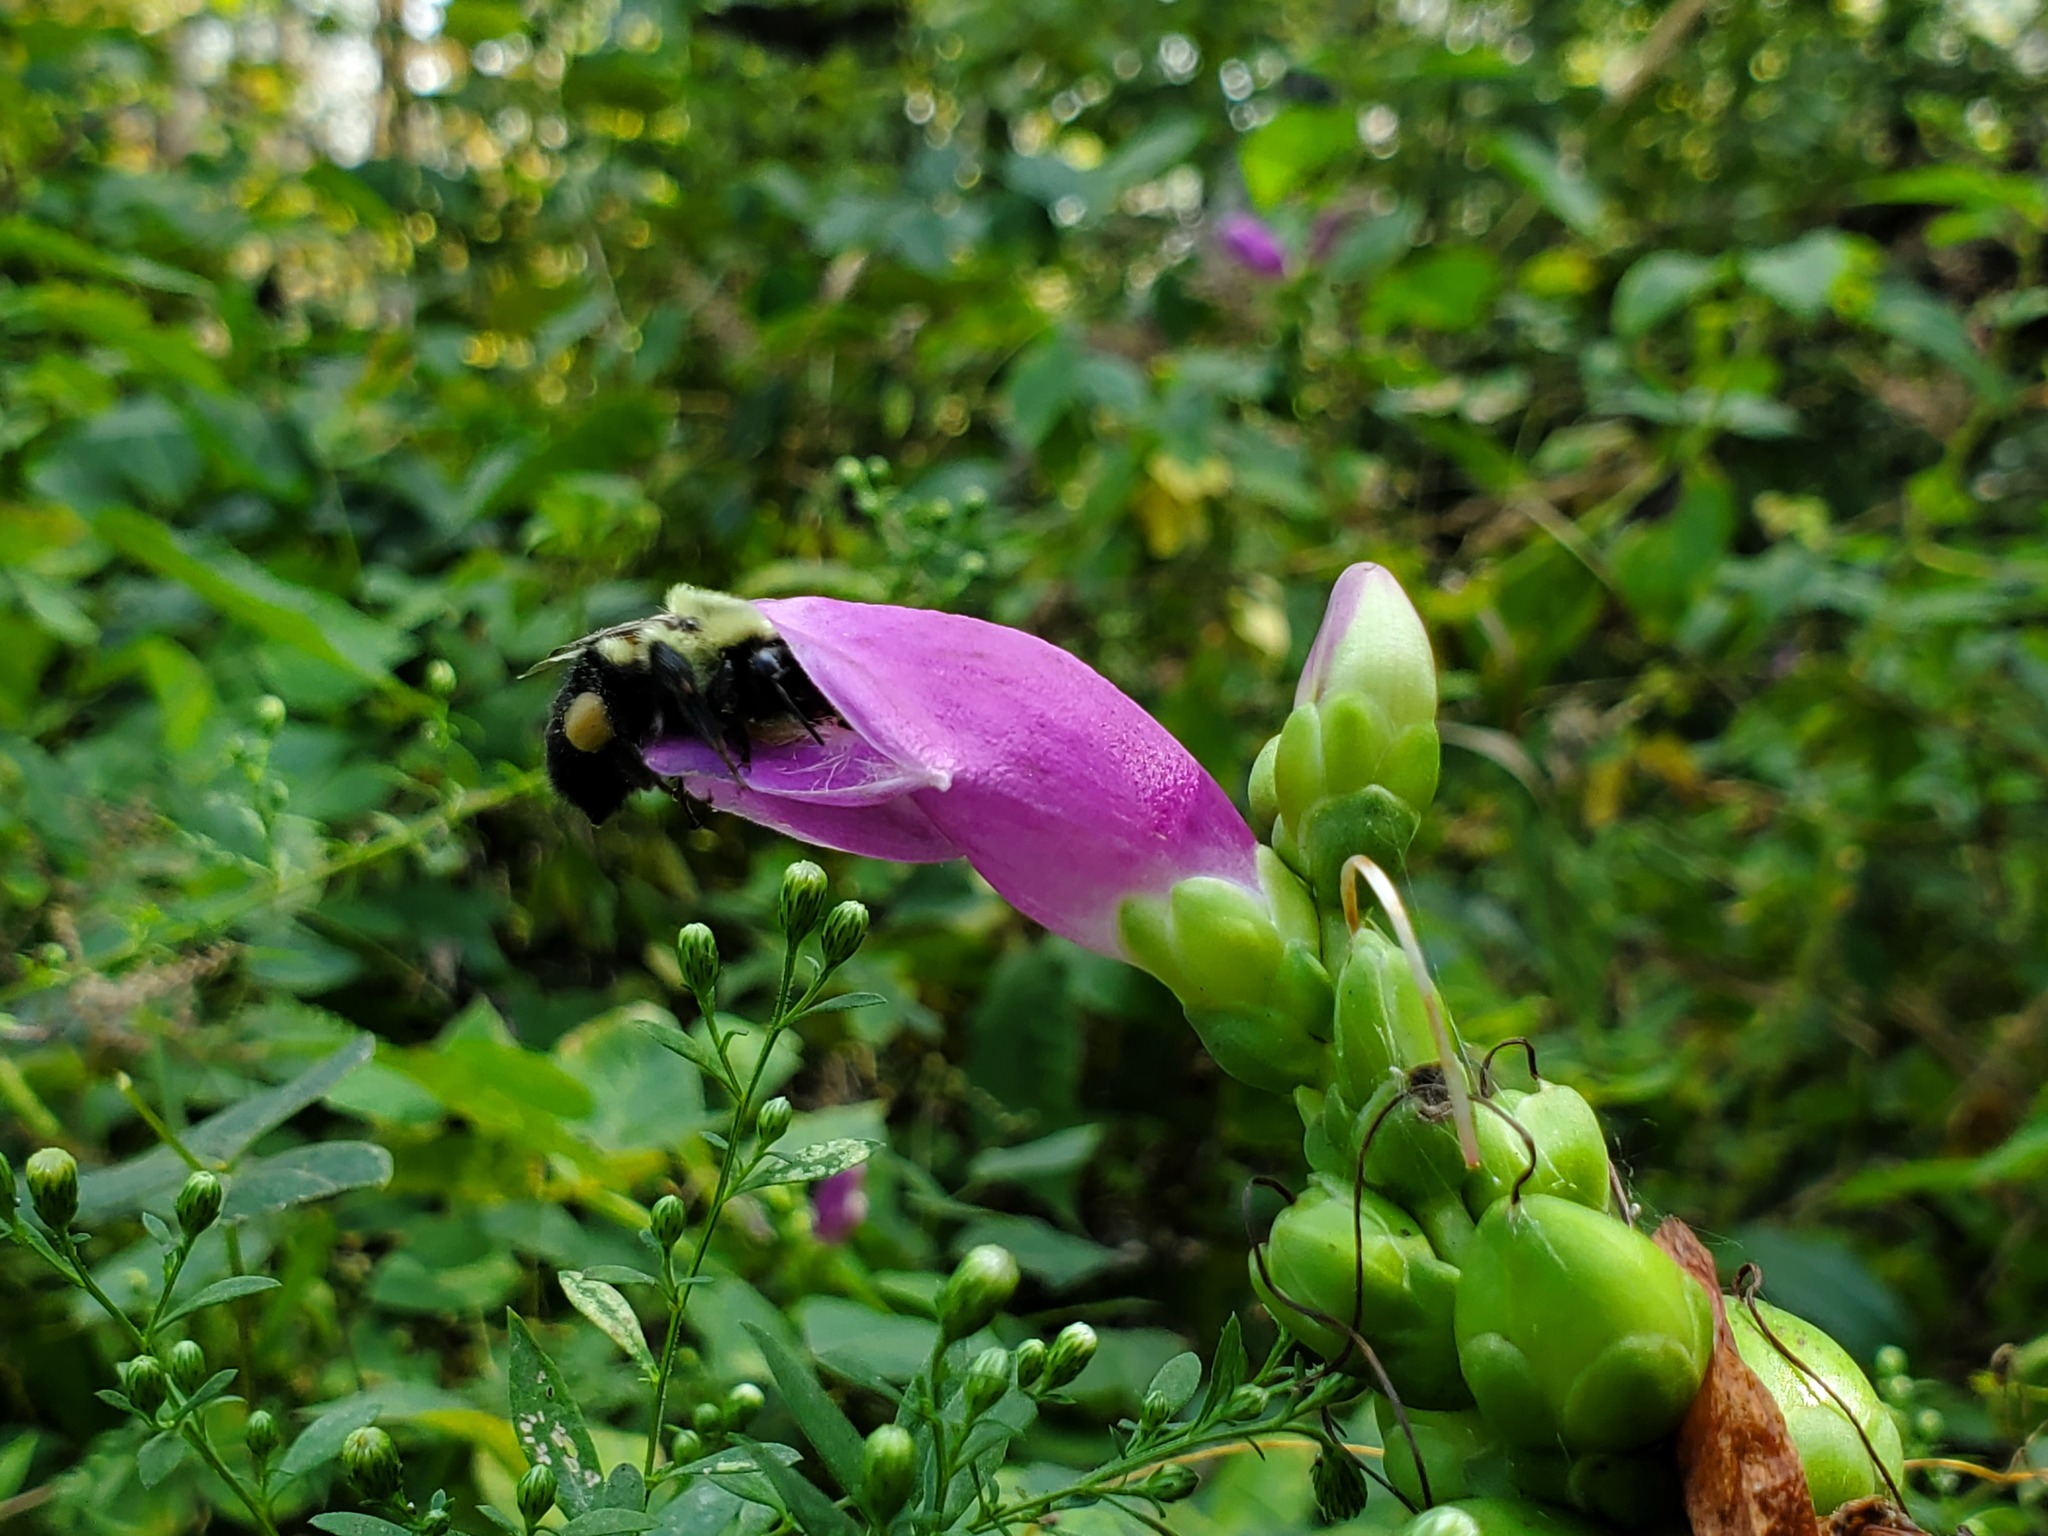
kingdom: Animalia
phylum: Arthropoda
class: Insecta
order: Hymenoptera
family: Apidae
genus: Bombus
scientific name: Bombus impatiens
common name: Common eastern bumble bee
